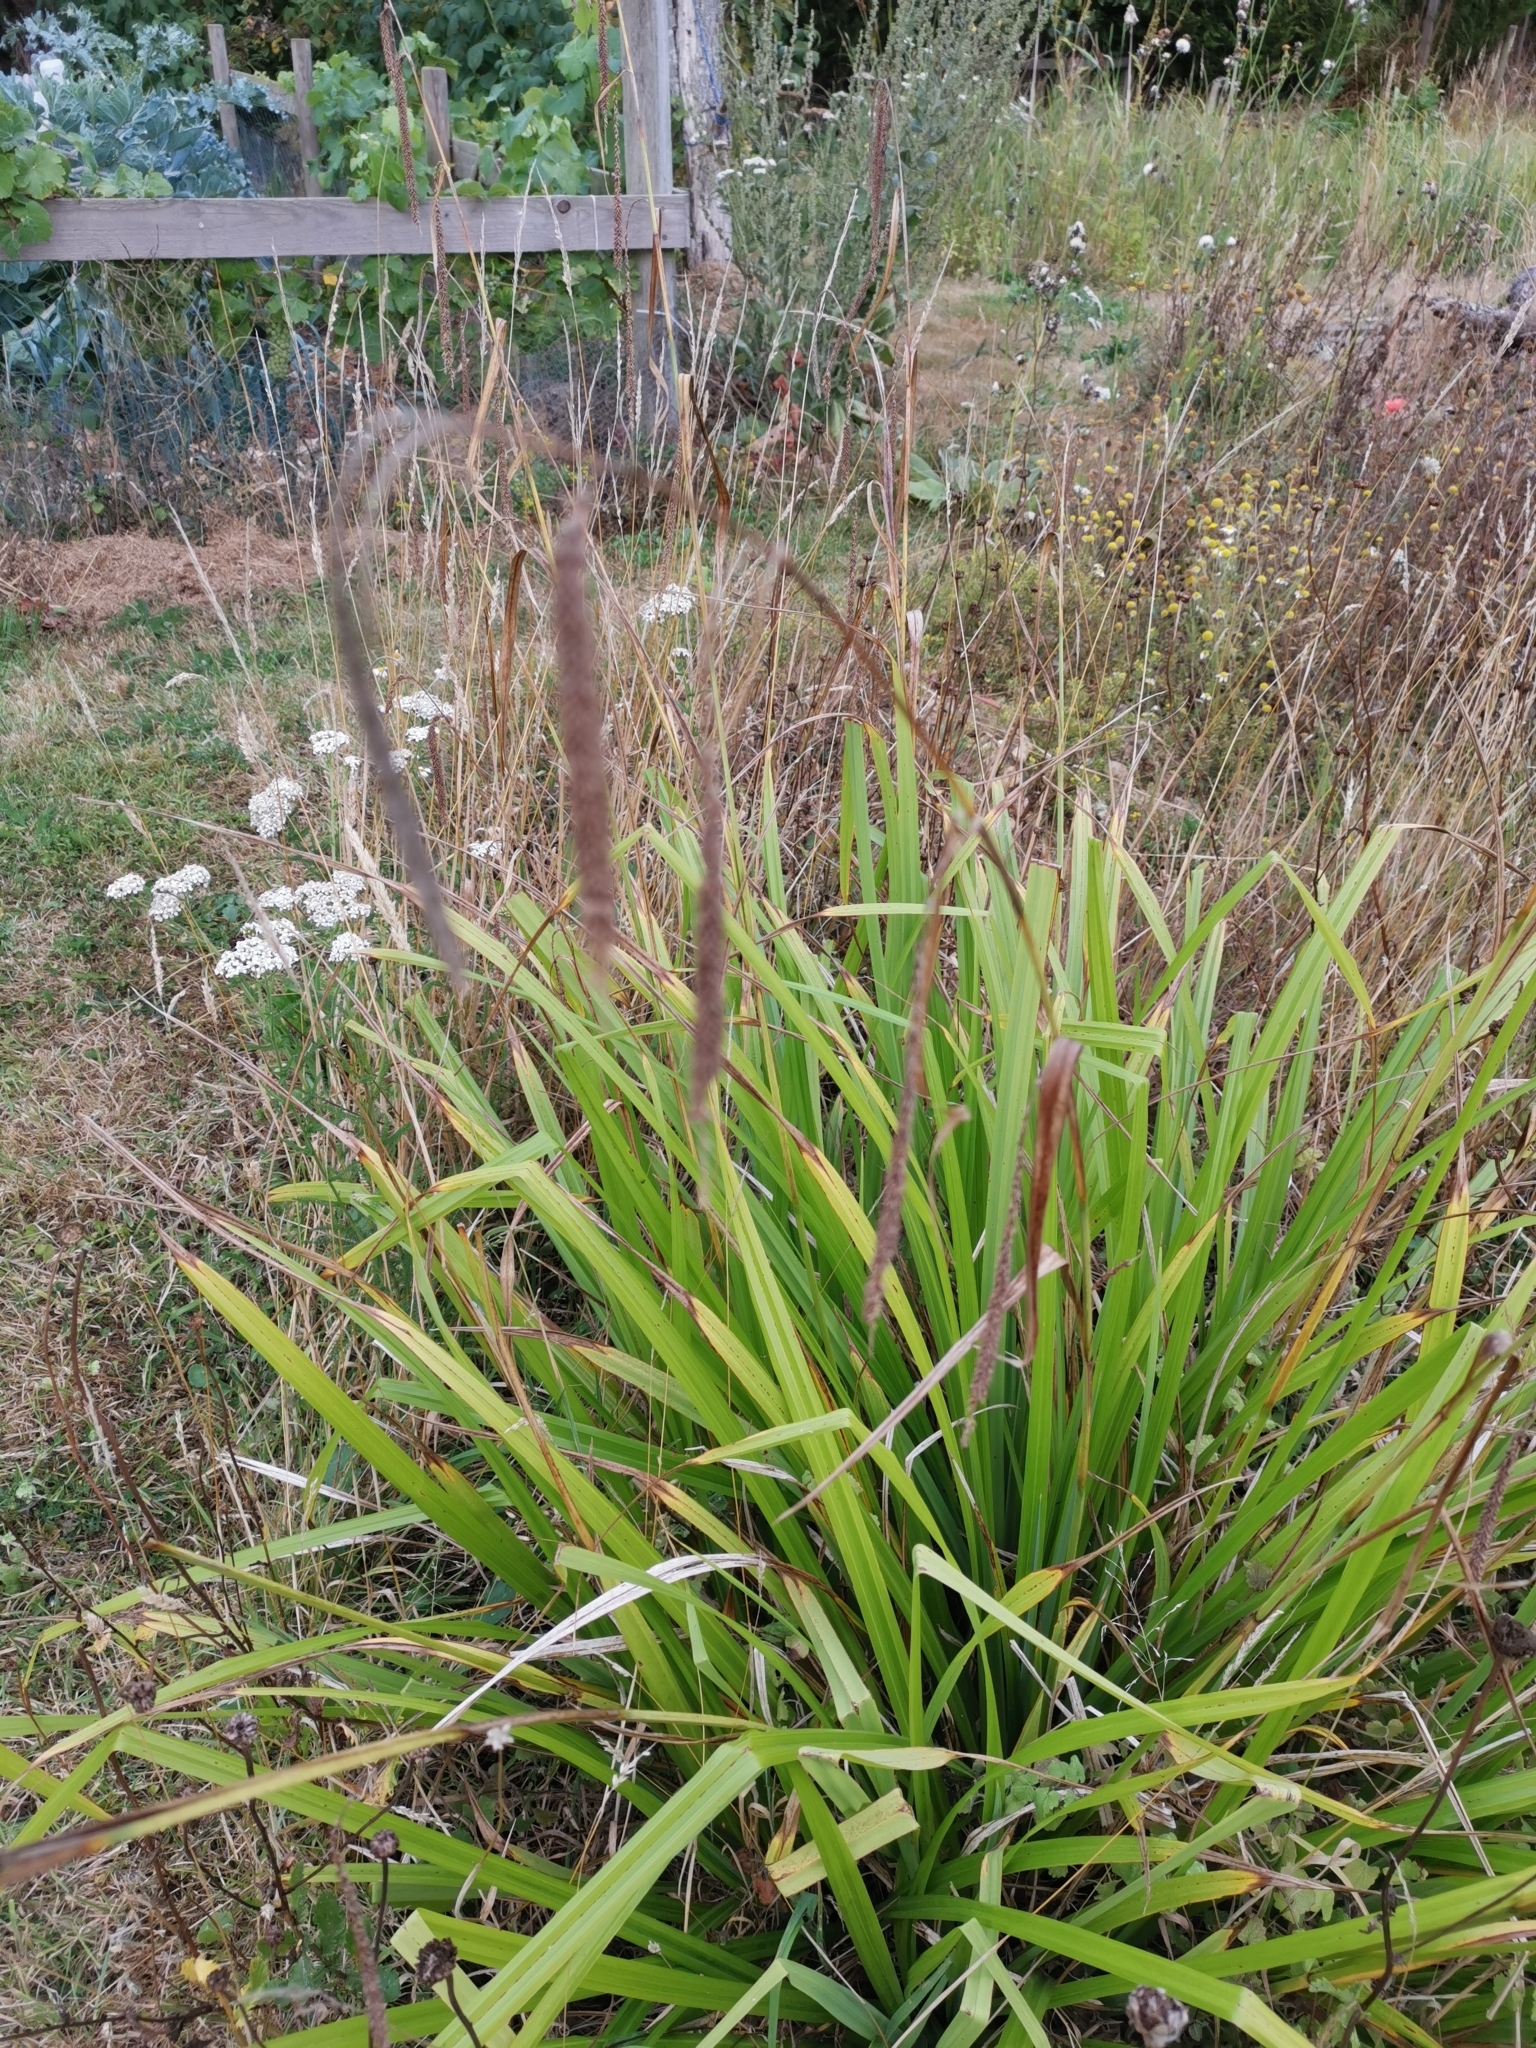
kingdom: Plantae
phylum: Tracheophyta
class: Liliopsida
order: Poales
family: Cyperaceae
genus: Carex
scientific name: Carex pendula
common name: Pendulous sedge
